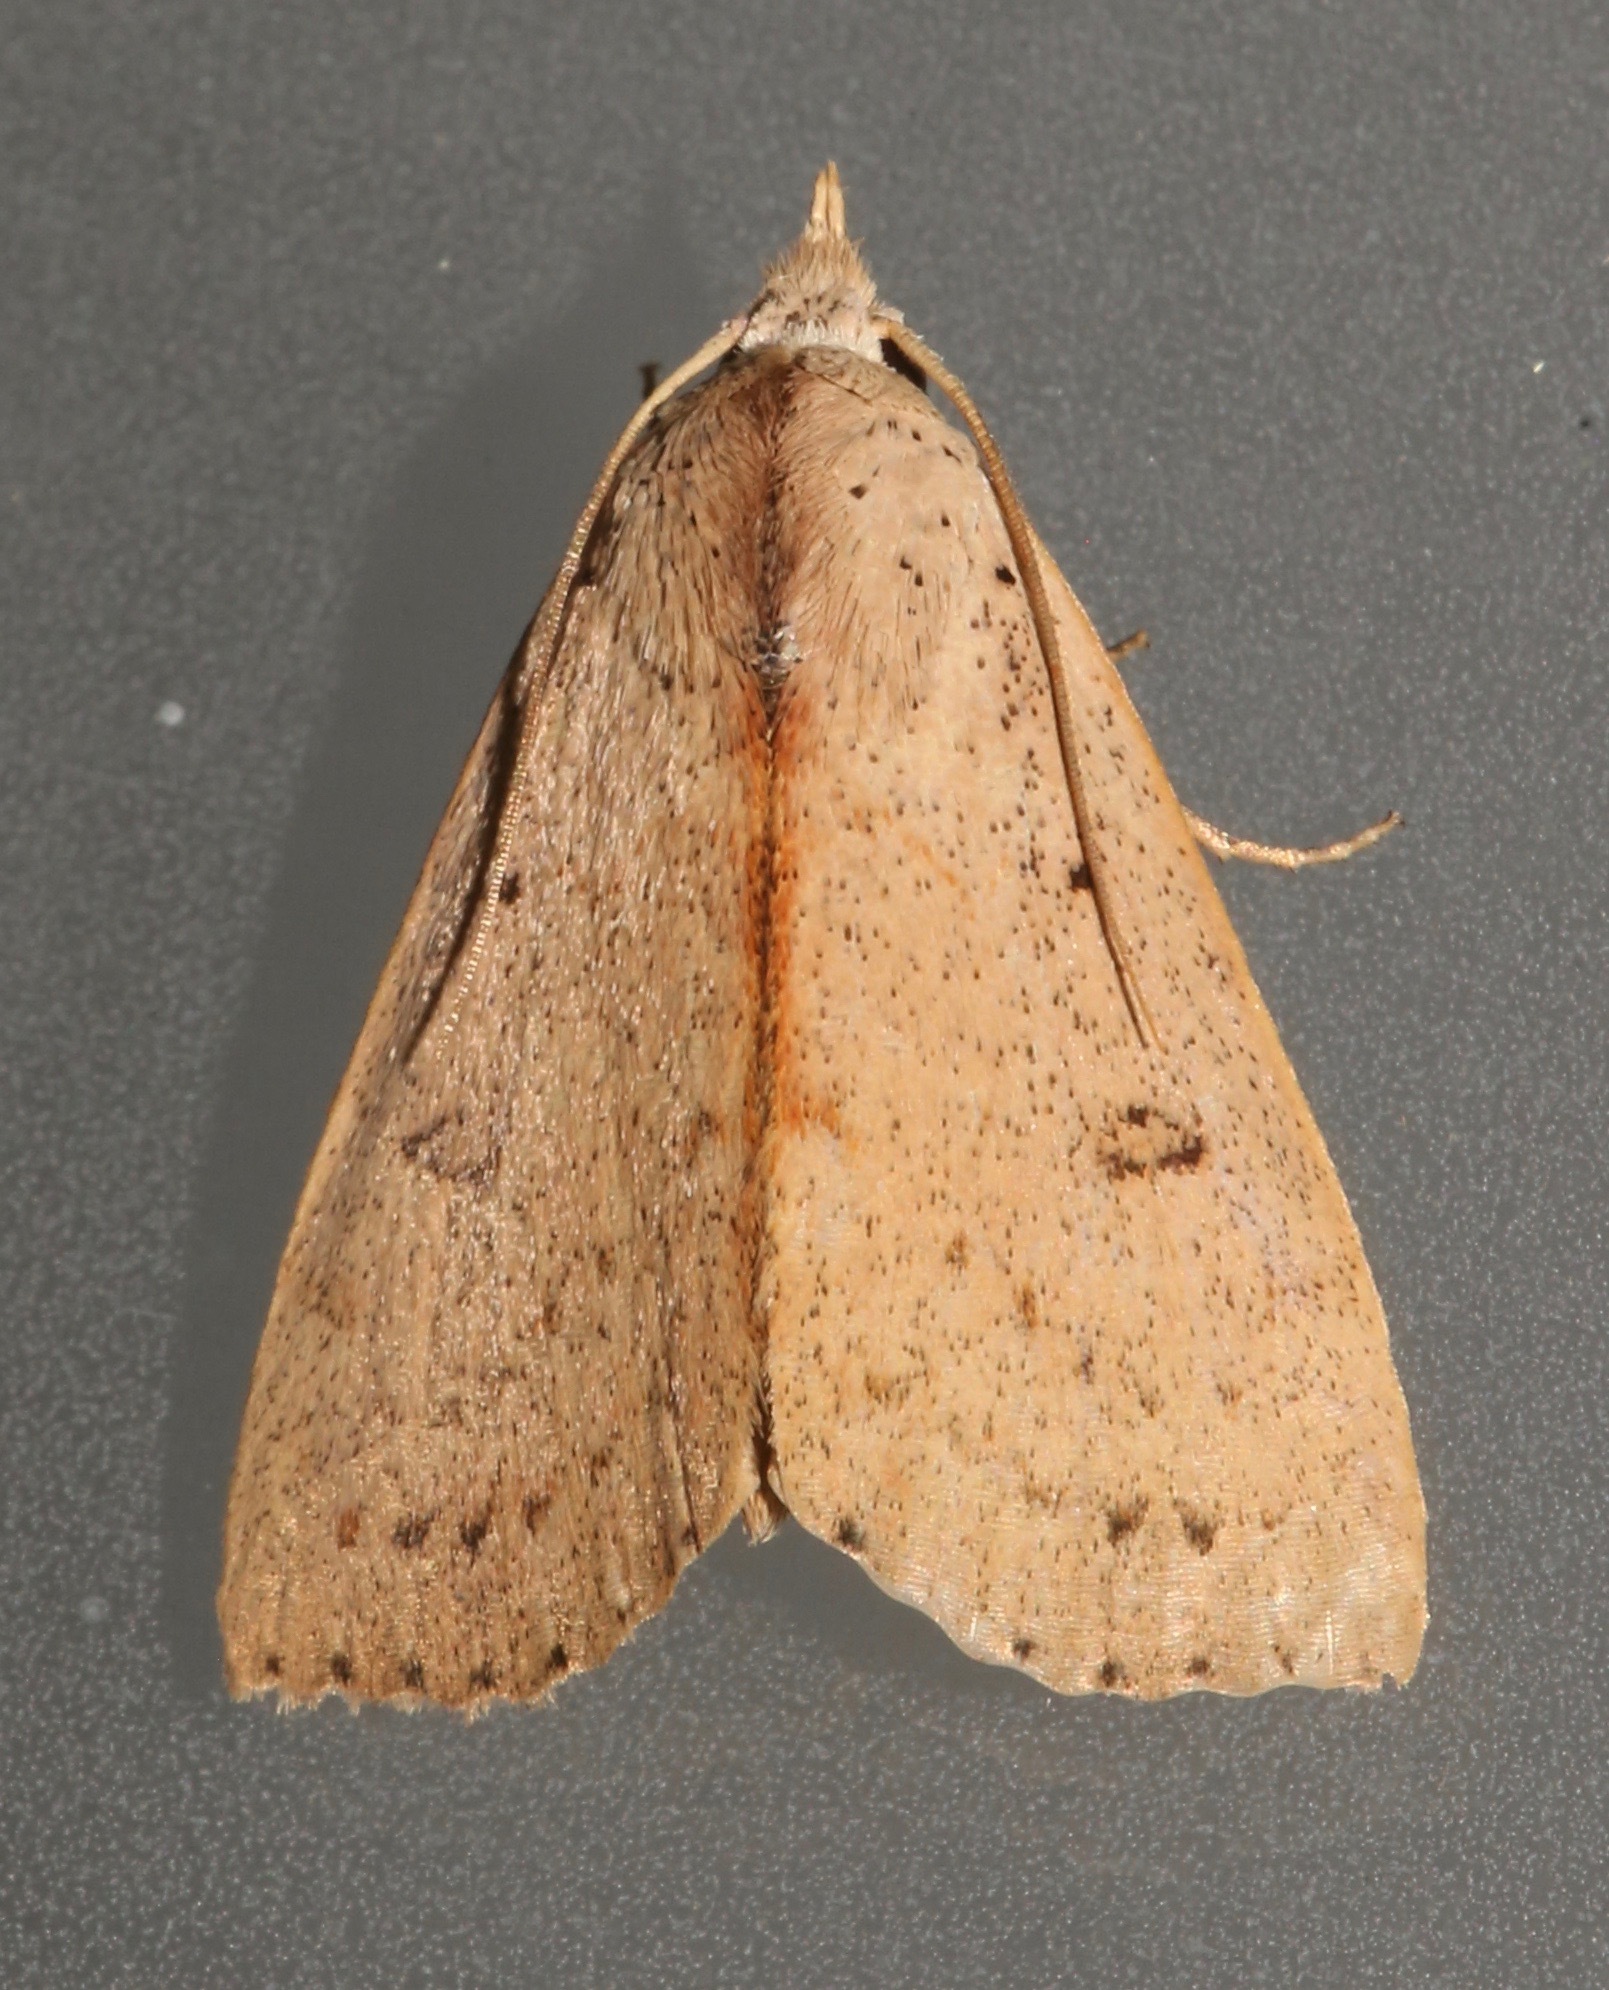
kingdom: Animalia
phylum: Arthropoda
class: Insecta
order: Lepidoptera
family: Erebidae
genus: Scolecocampa
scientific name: Scolecocampa liburna
